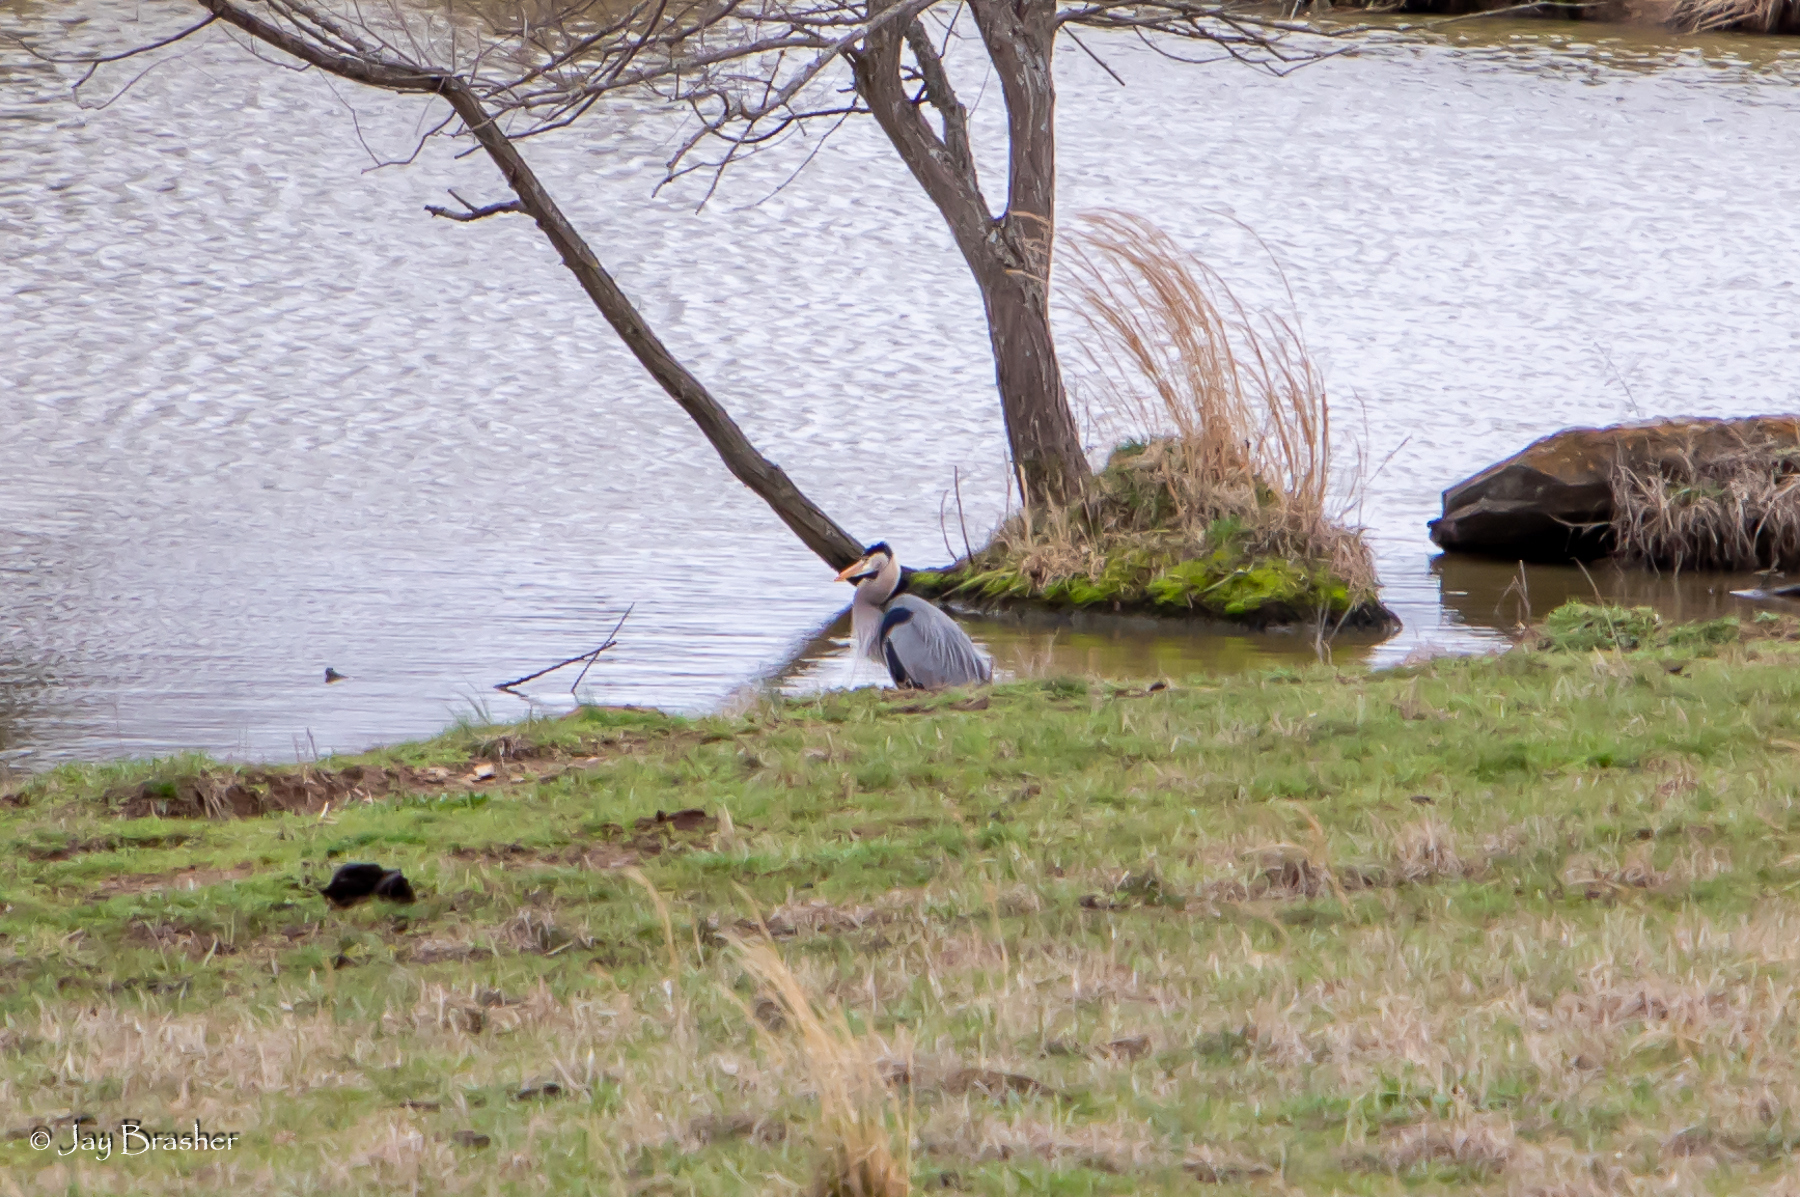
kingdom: Animalia
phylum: Chordata
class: Aves
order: Pelecaniformes
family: Ardeidae
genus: Ardea
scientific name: Ardea herodias
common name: Great blue heron
